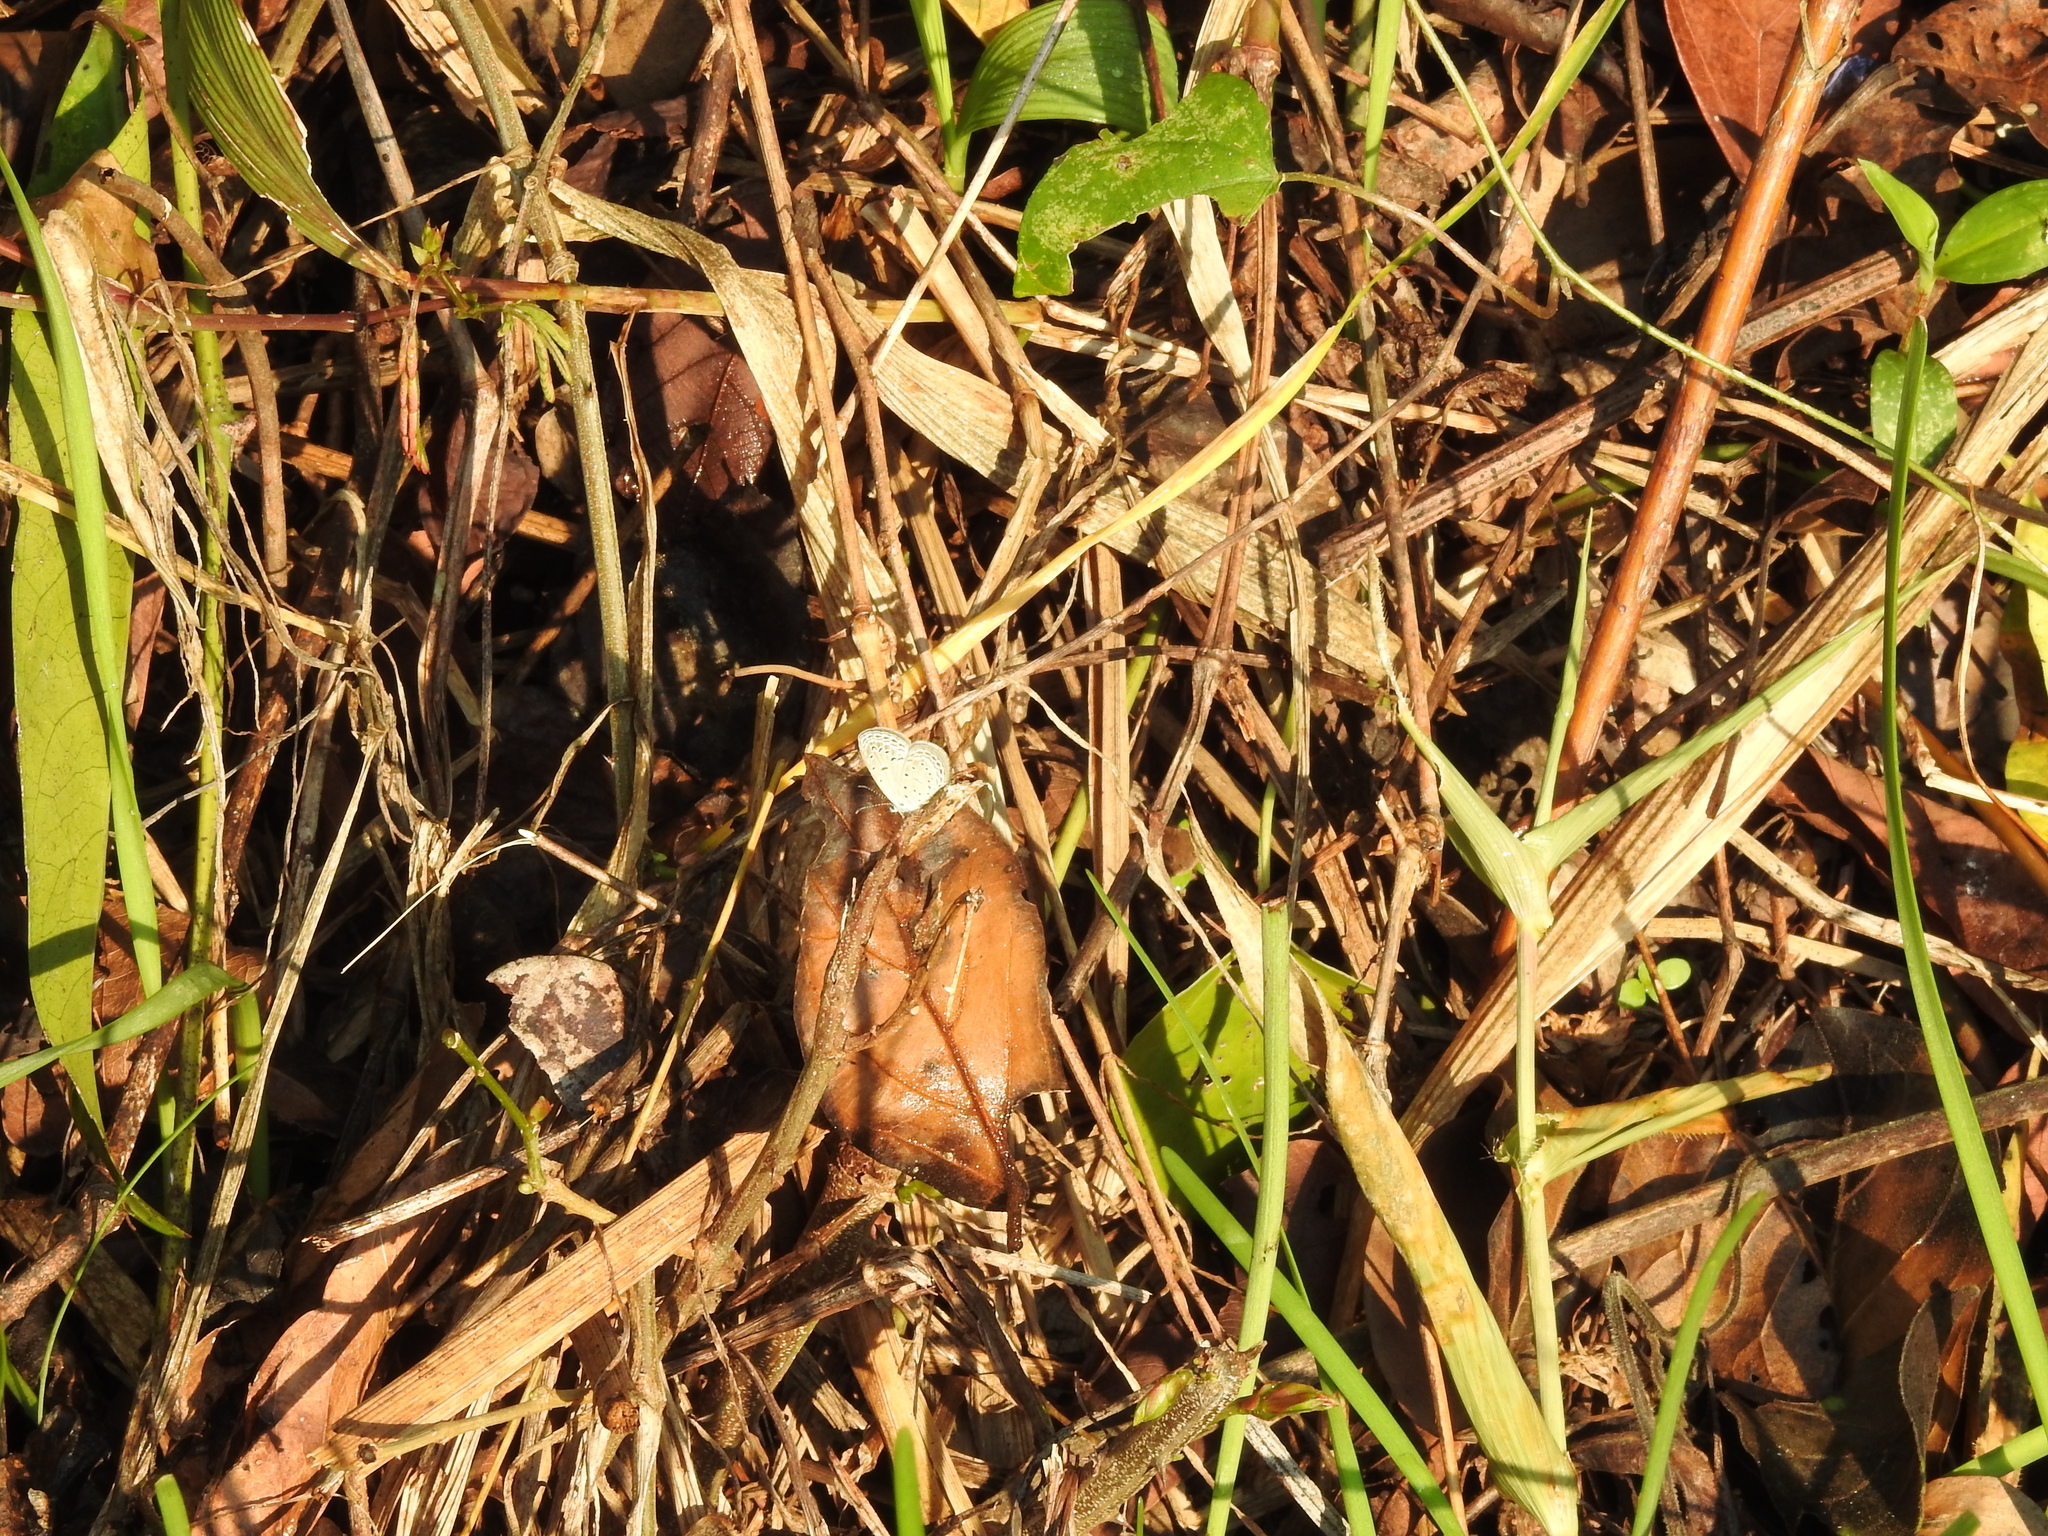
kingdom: Animalia
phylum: Arthropoda
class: Insecta
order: Lepidoptera
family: Lycaenidae
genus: Zizula
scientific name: Zizula hylax
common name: Gaika blue
